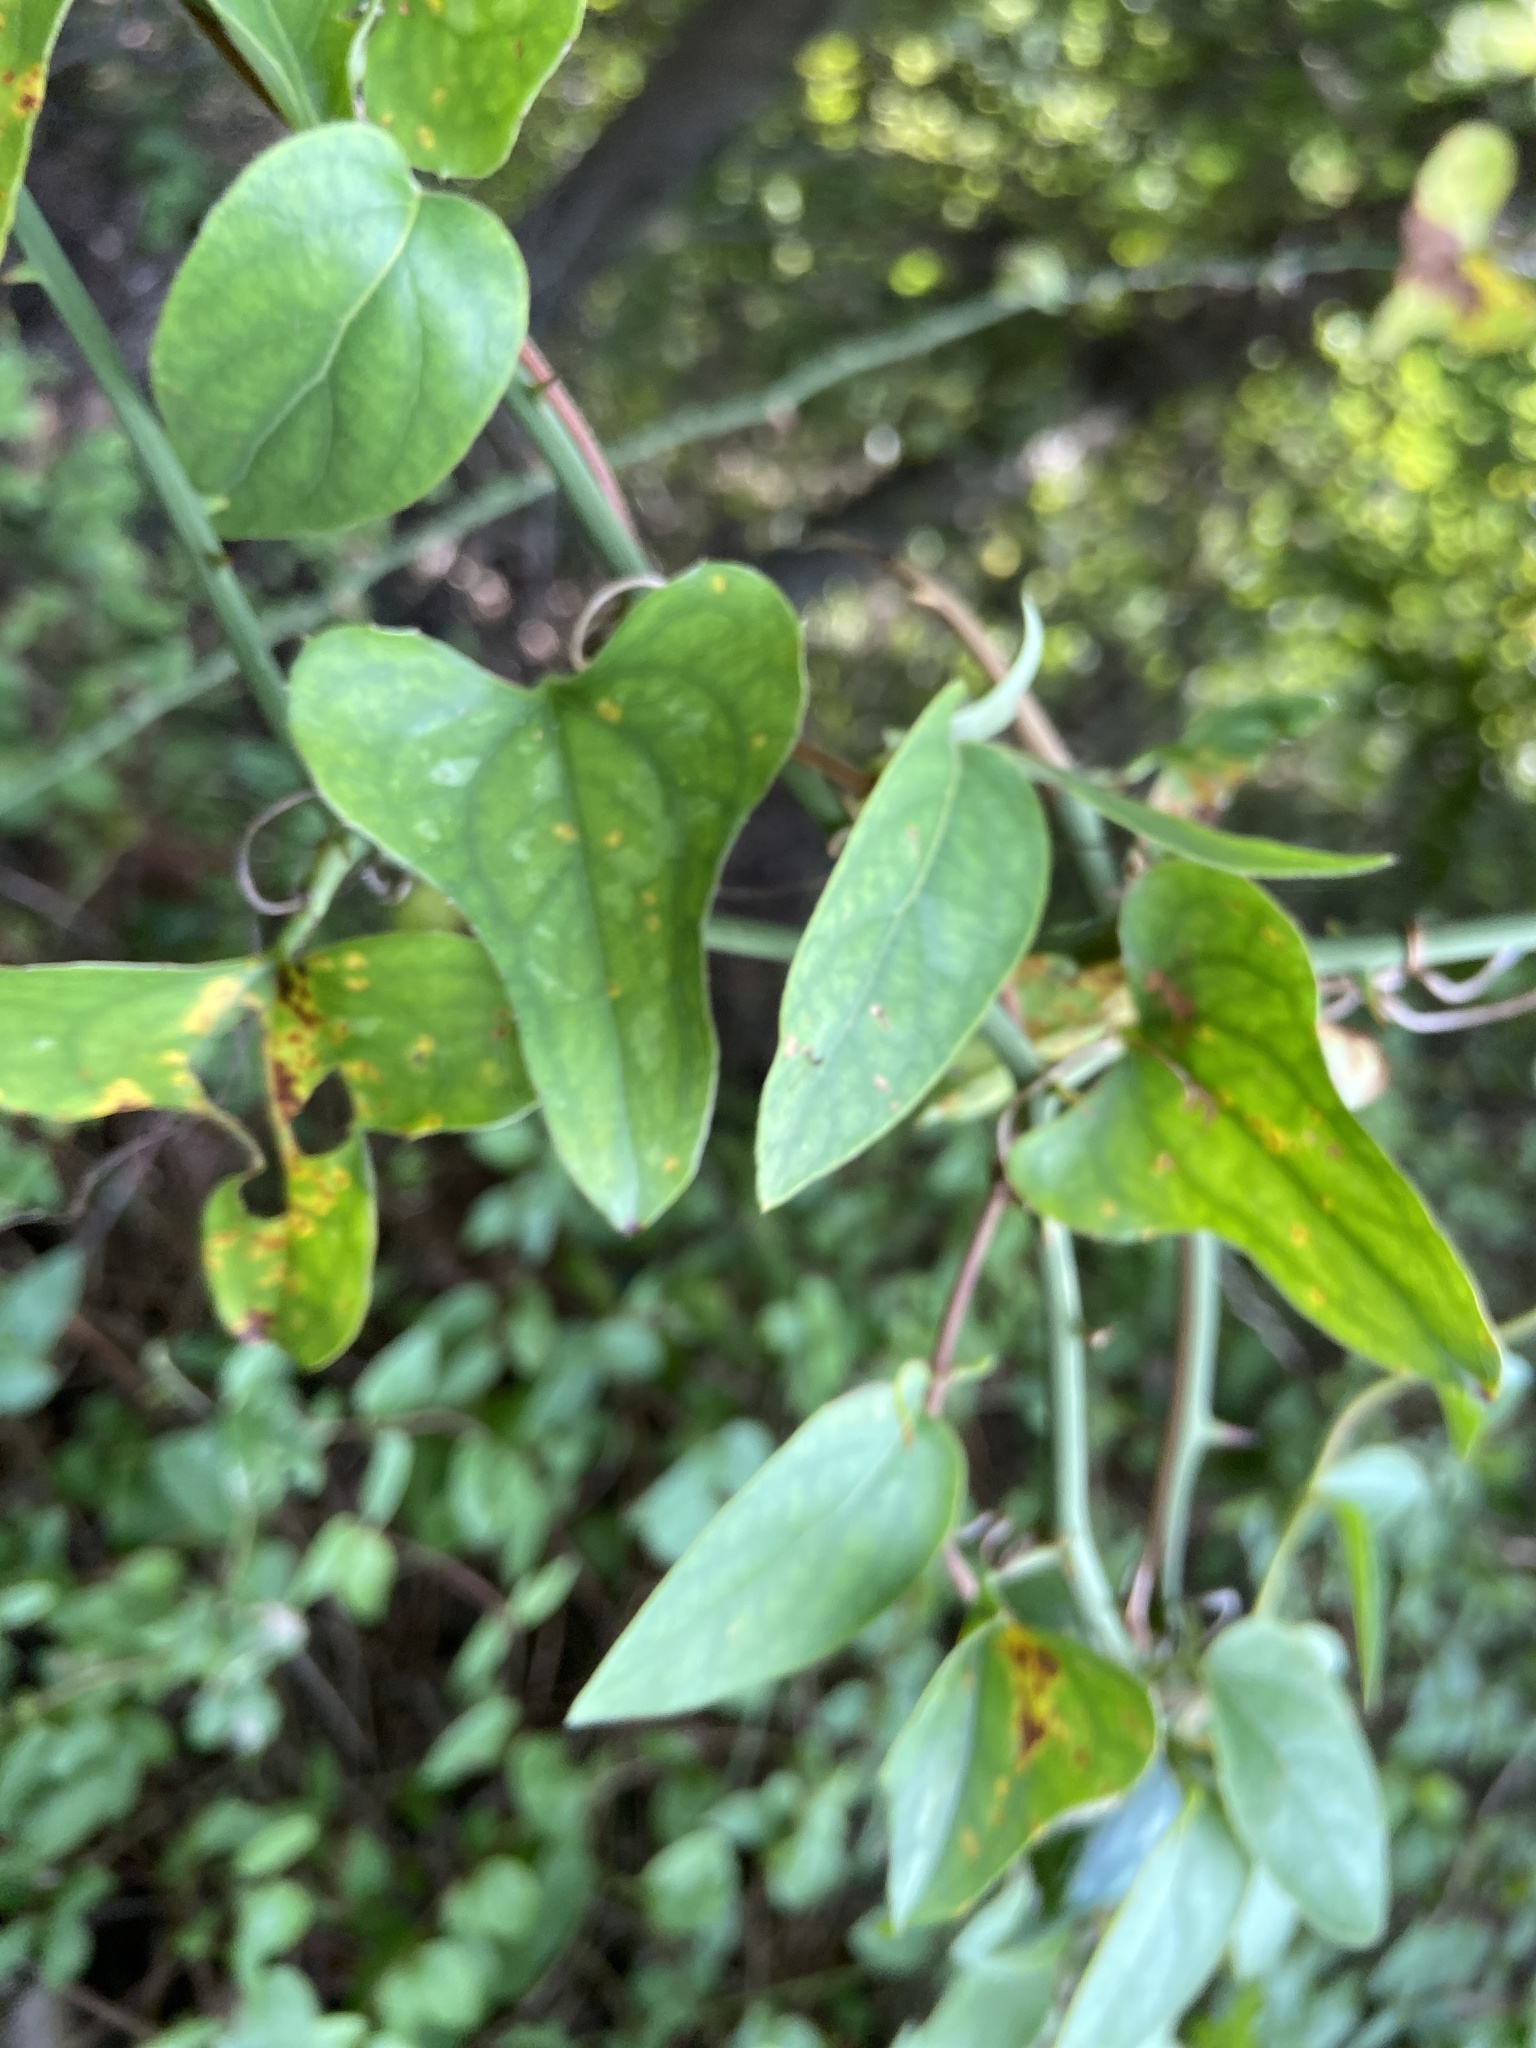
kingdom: Plantae
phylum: Tracheophyta
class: Liliopsida
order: Liliales
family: Smilacaceae
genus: Smilax
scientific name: Smilax bona-nox
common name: Catbrier
